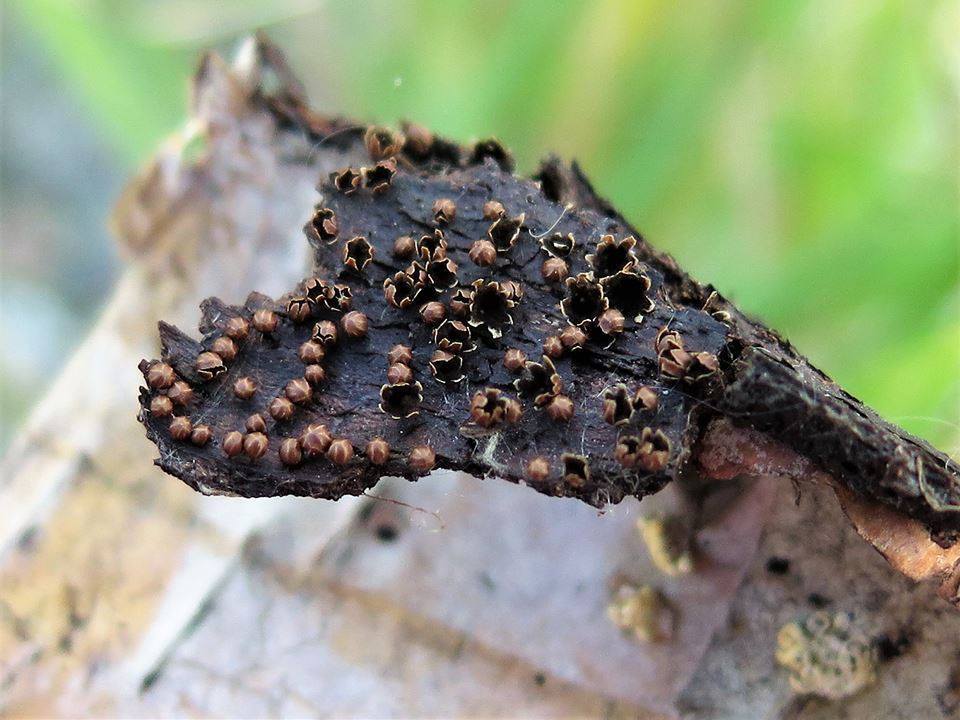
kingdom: Protozoa
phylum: Mycetozoa
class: Myxomycetes
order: Physarales
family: Didymiaceae
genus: Polyschismium
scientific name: Polyschismium trevelyanii
